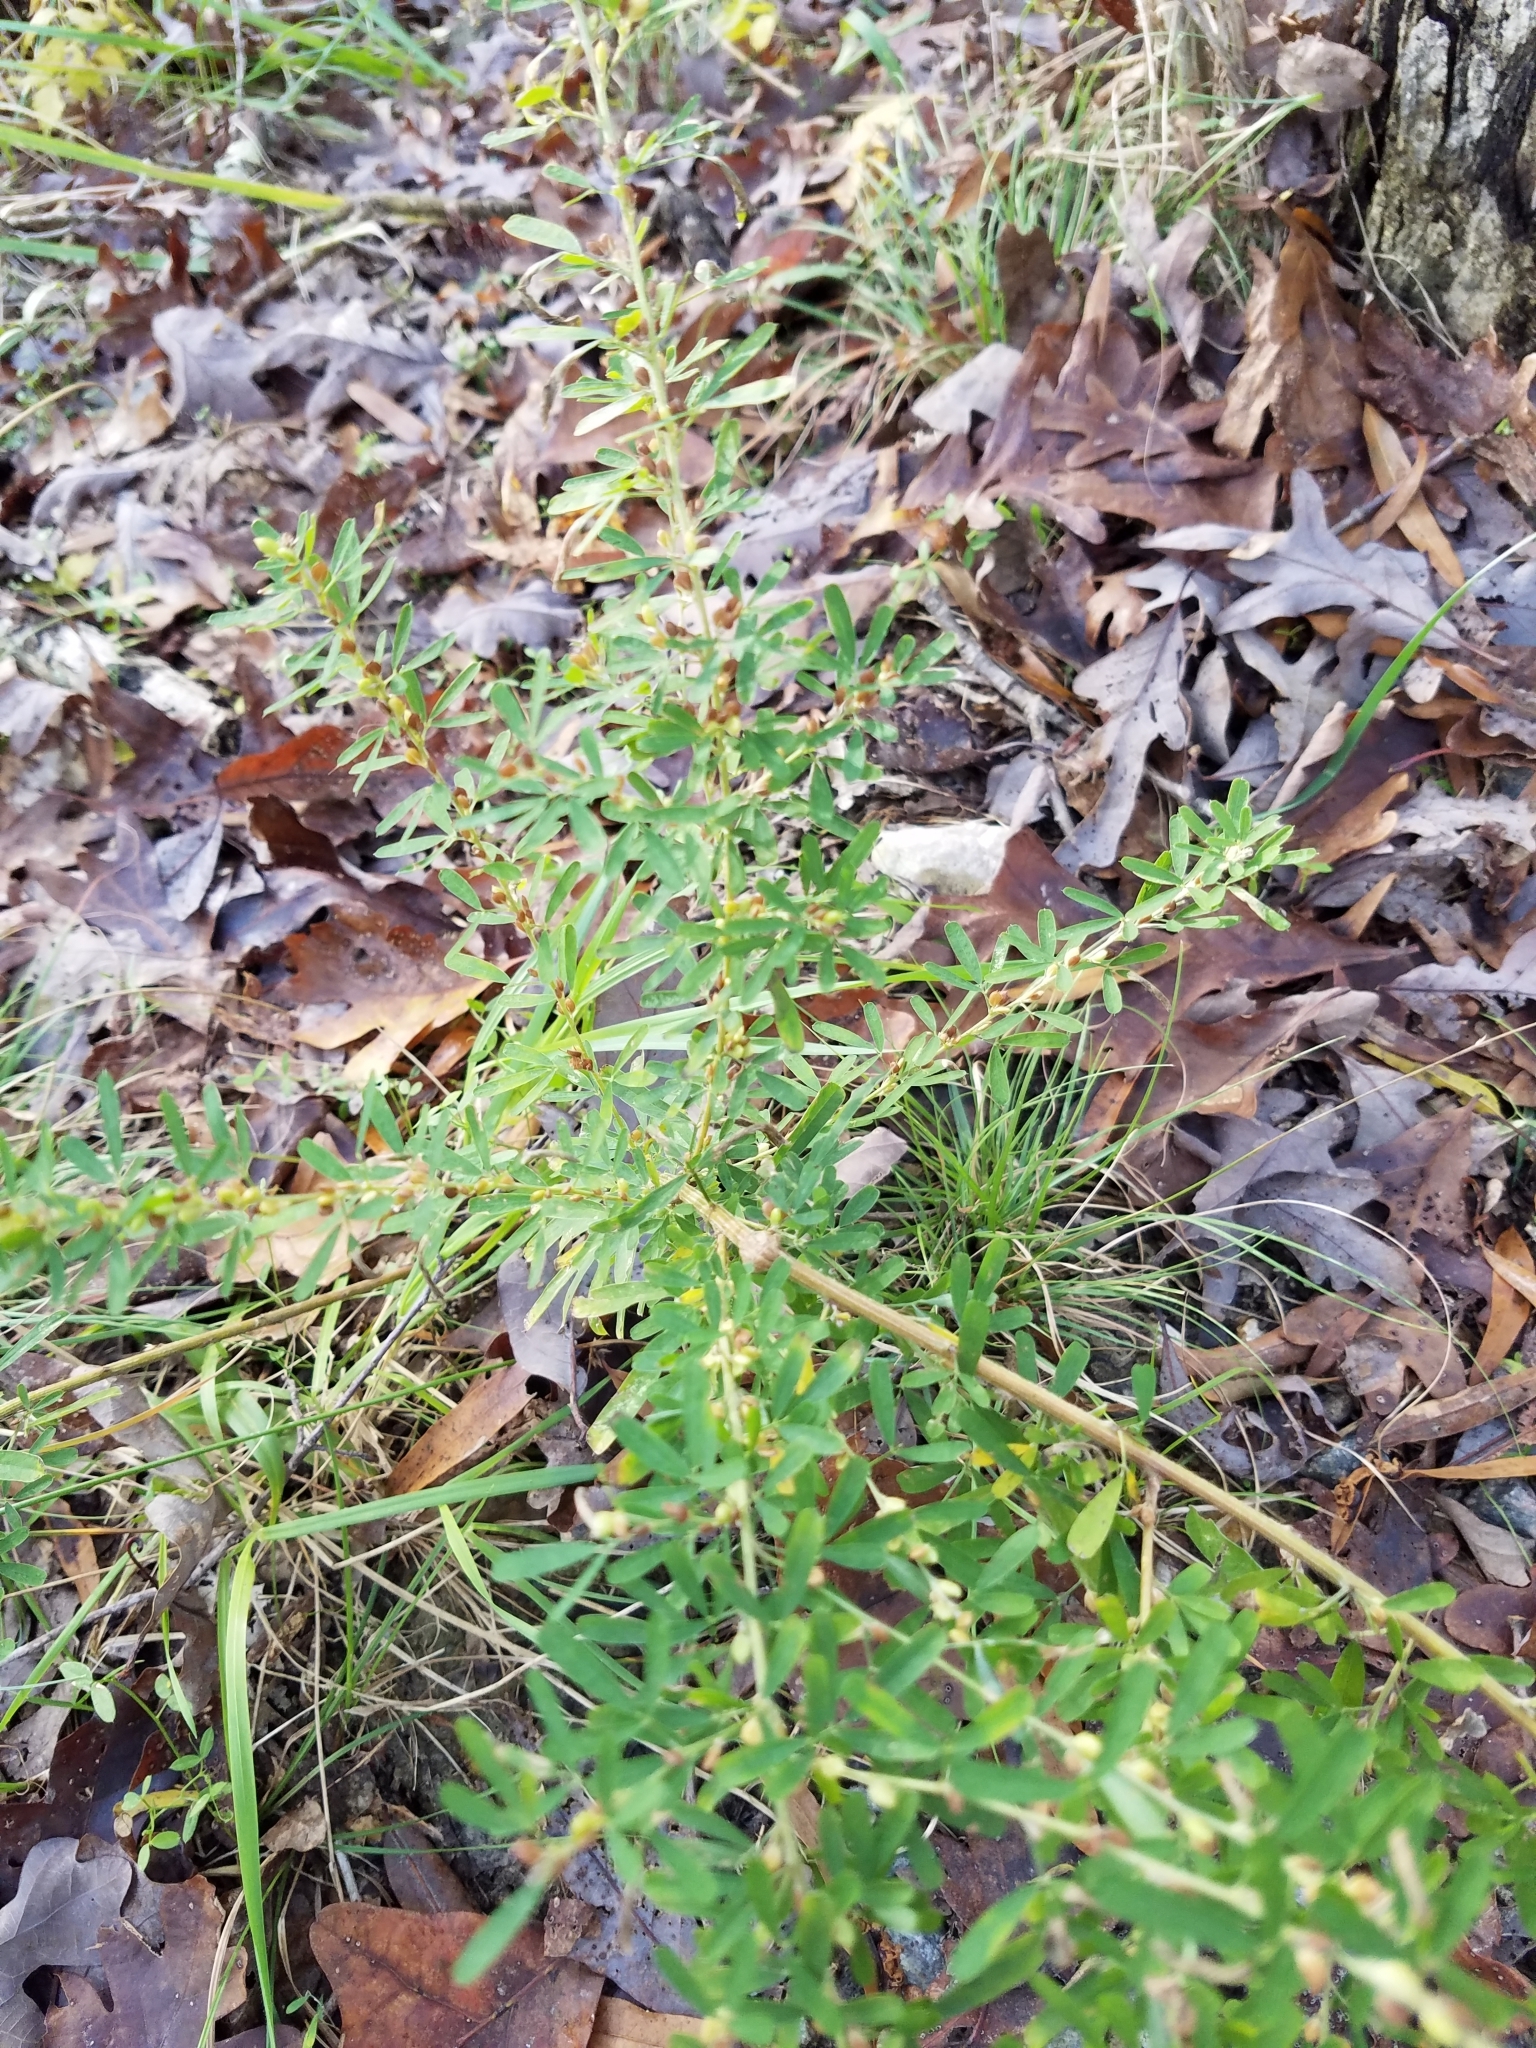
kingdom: Plantae
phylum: Tracheophyta
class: Magnoliopsida
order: Fabales
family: Fabaceae
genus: Lespedeza
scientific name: Lespedeza cuneata
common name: Chinese bush-clover
